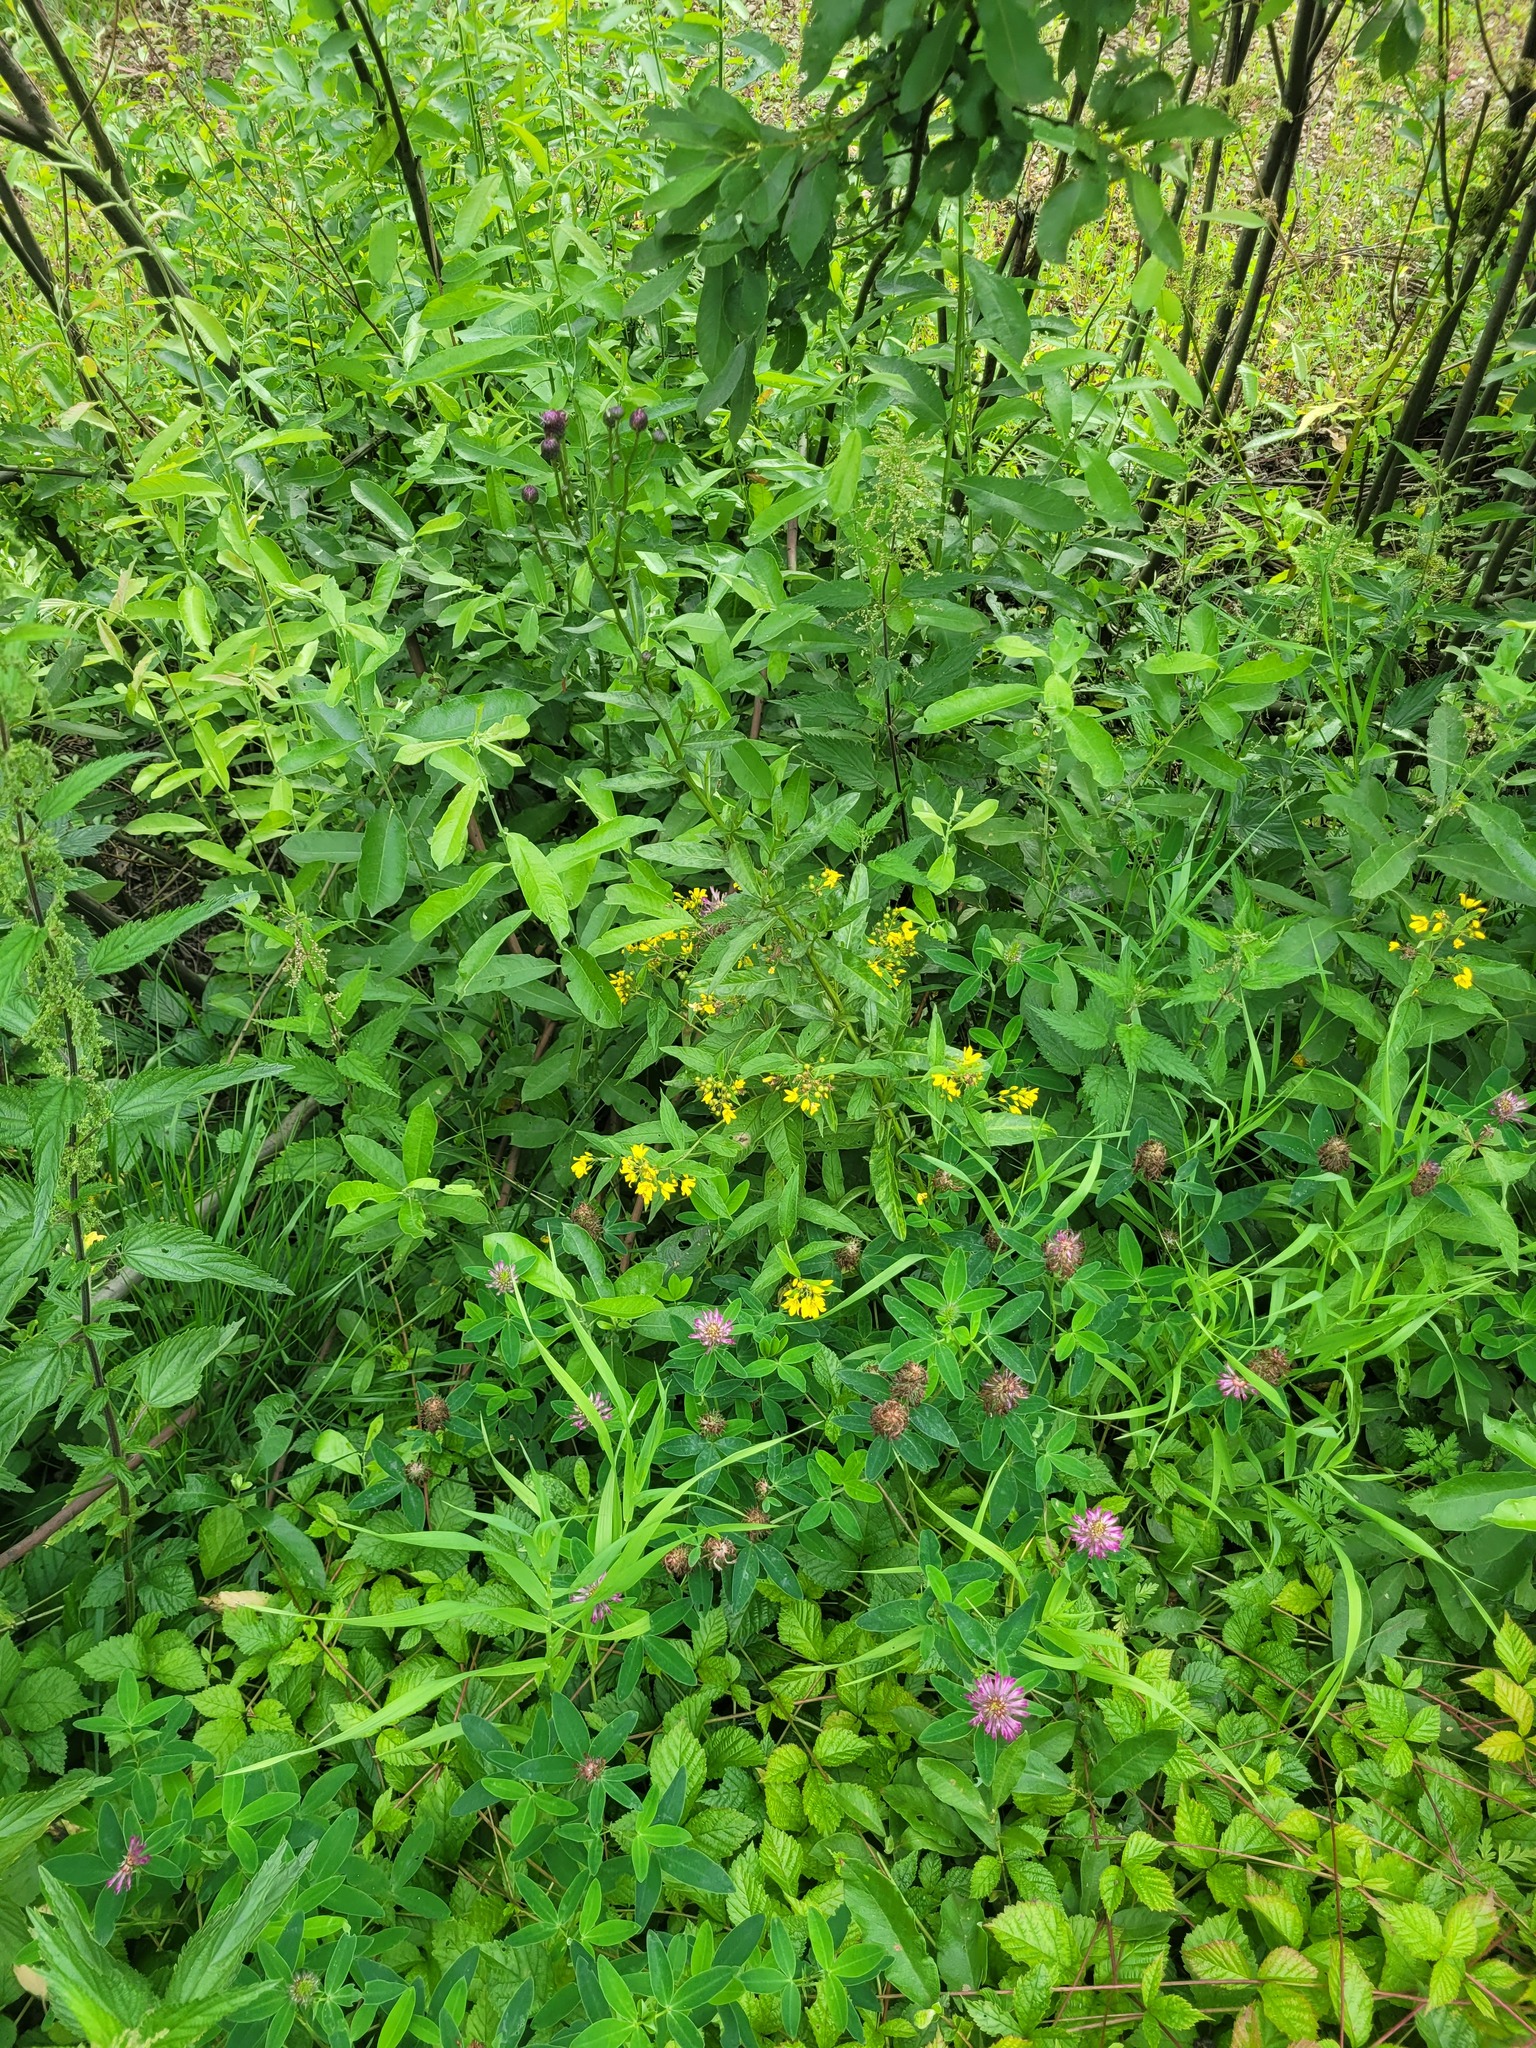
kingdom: Plantae
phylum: Tracheophyta
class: Magnoliopsida
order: Ericales
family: Primulaceae
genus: Lysimachia
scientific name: Lysimachia vulgaris
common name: Yellow loosestrife
